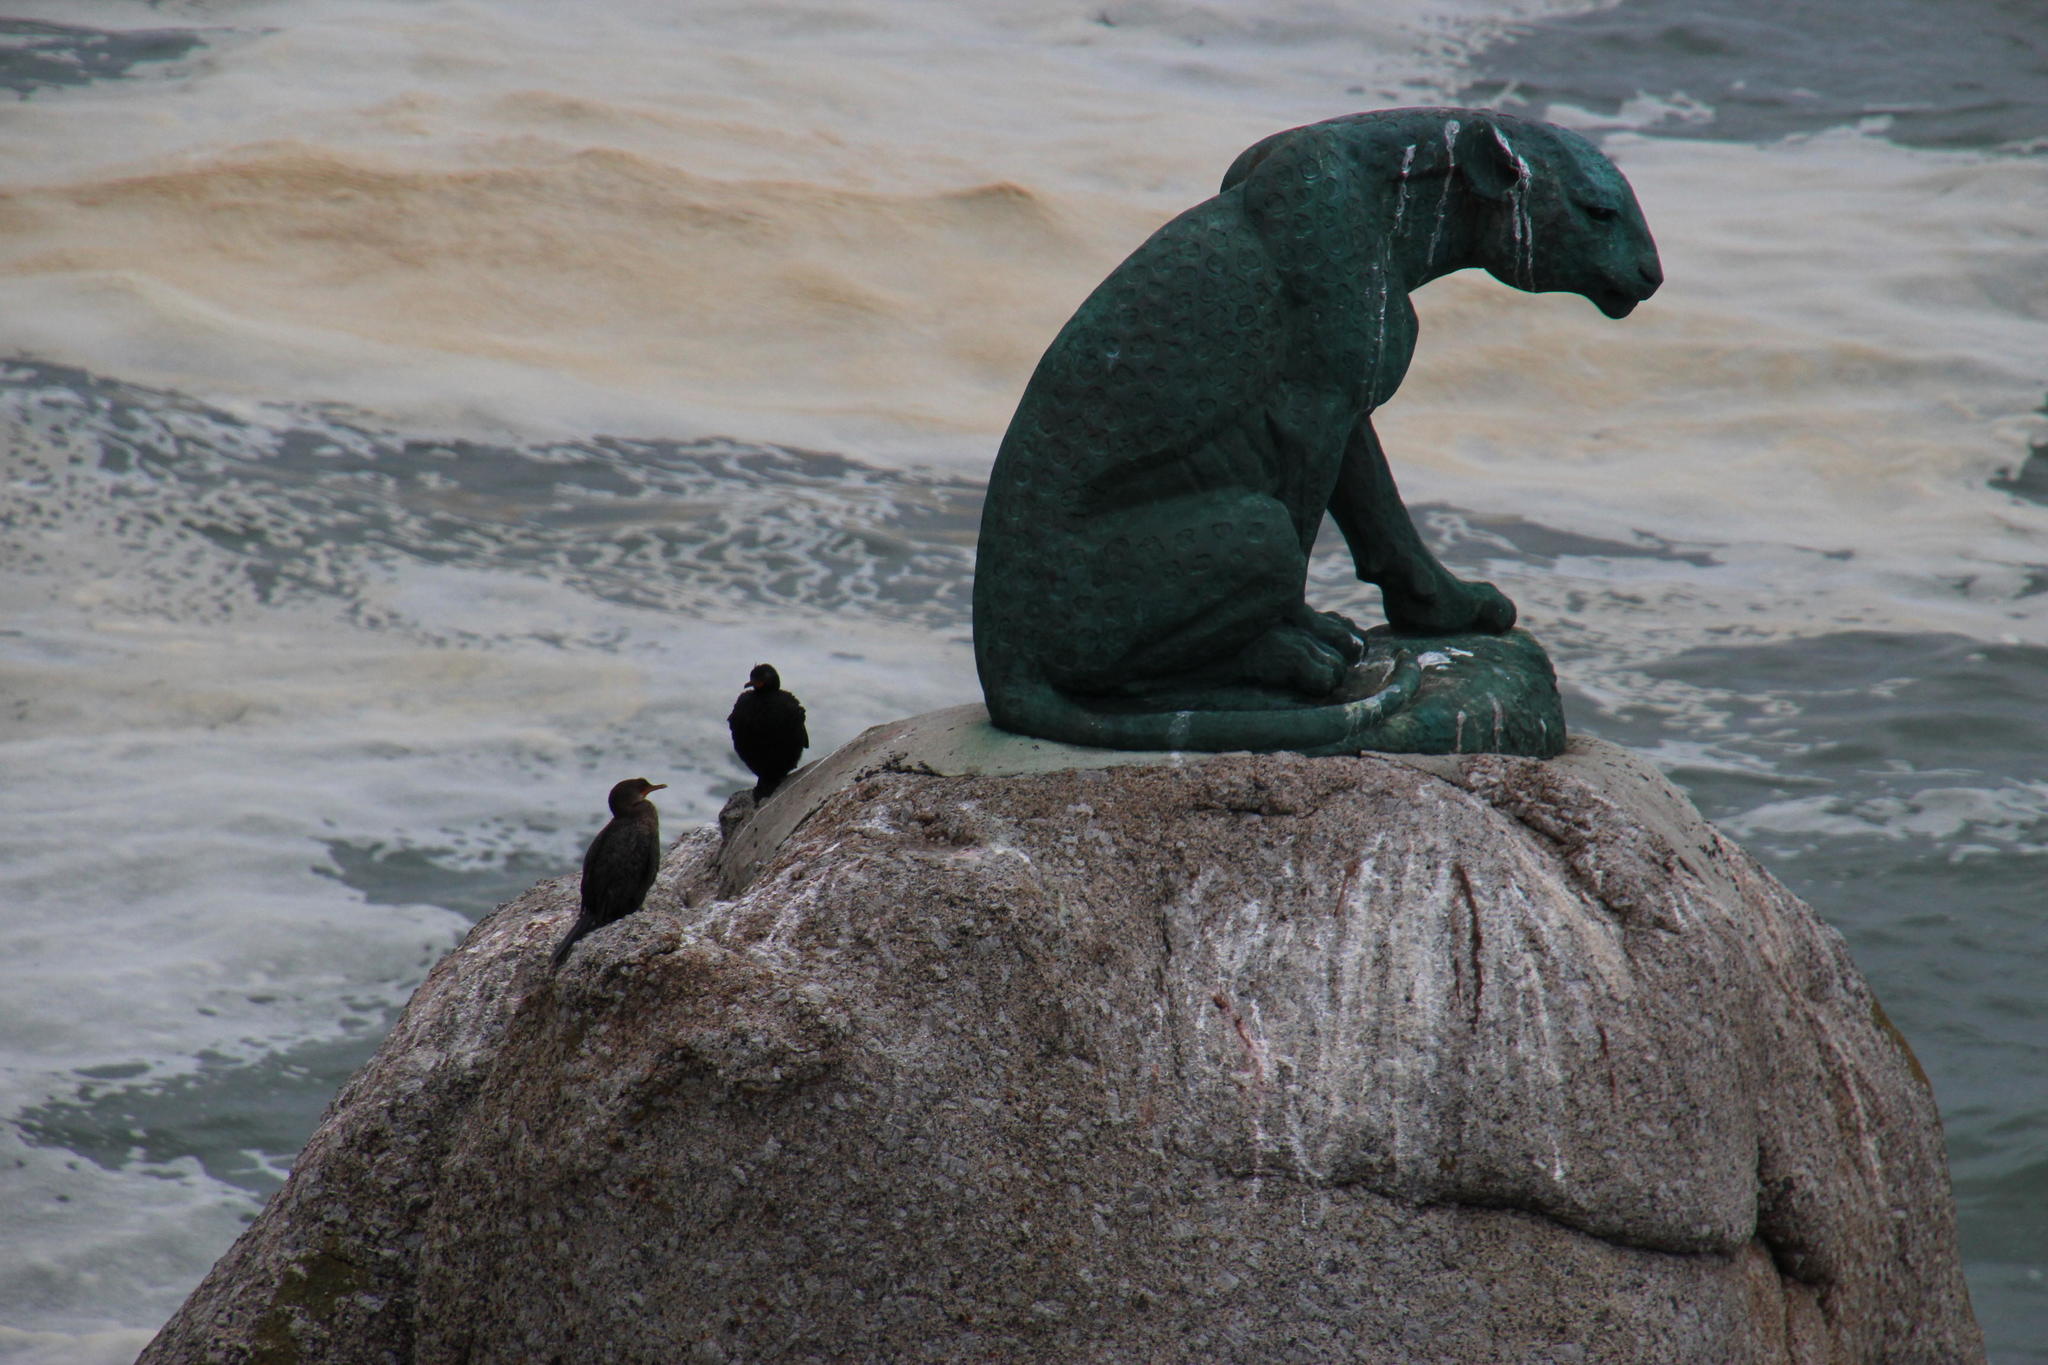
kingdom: Animalia
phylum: Chordata
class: Aves
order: Suliformes
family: Phalacrocoracidae
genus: Phalacrocorax
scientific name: Phalacrocorax capensis
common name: Cape cormorant
